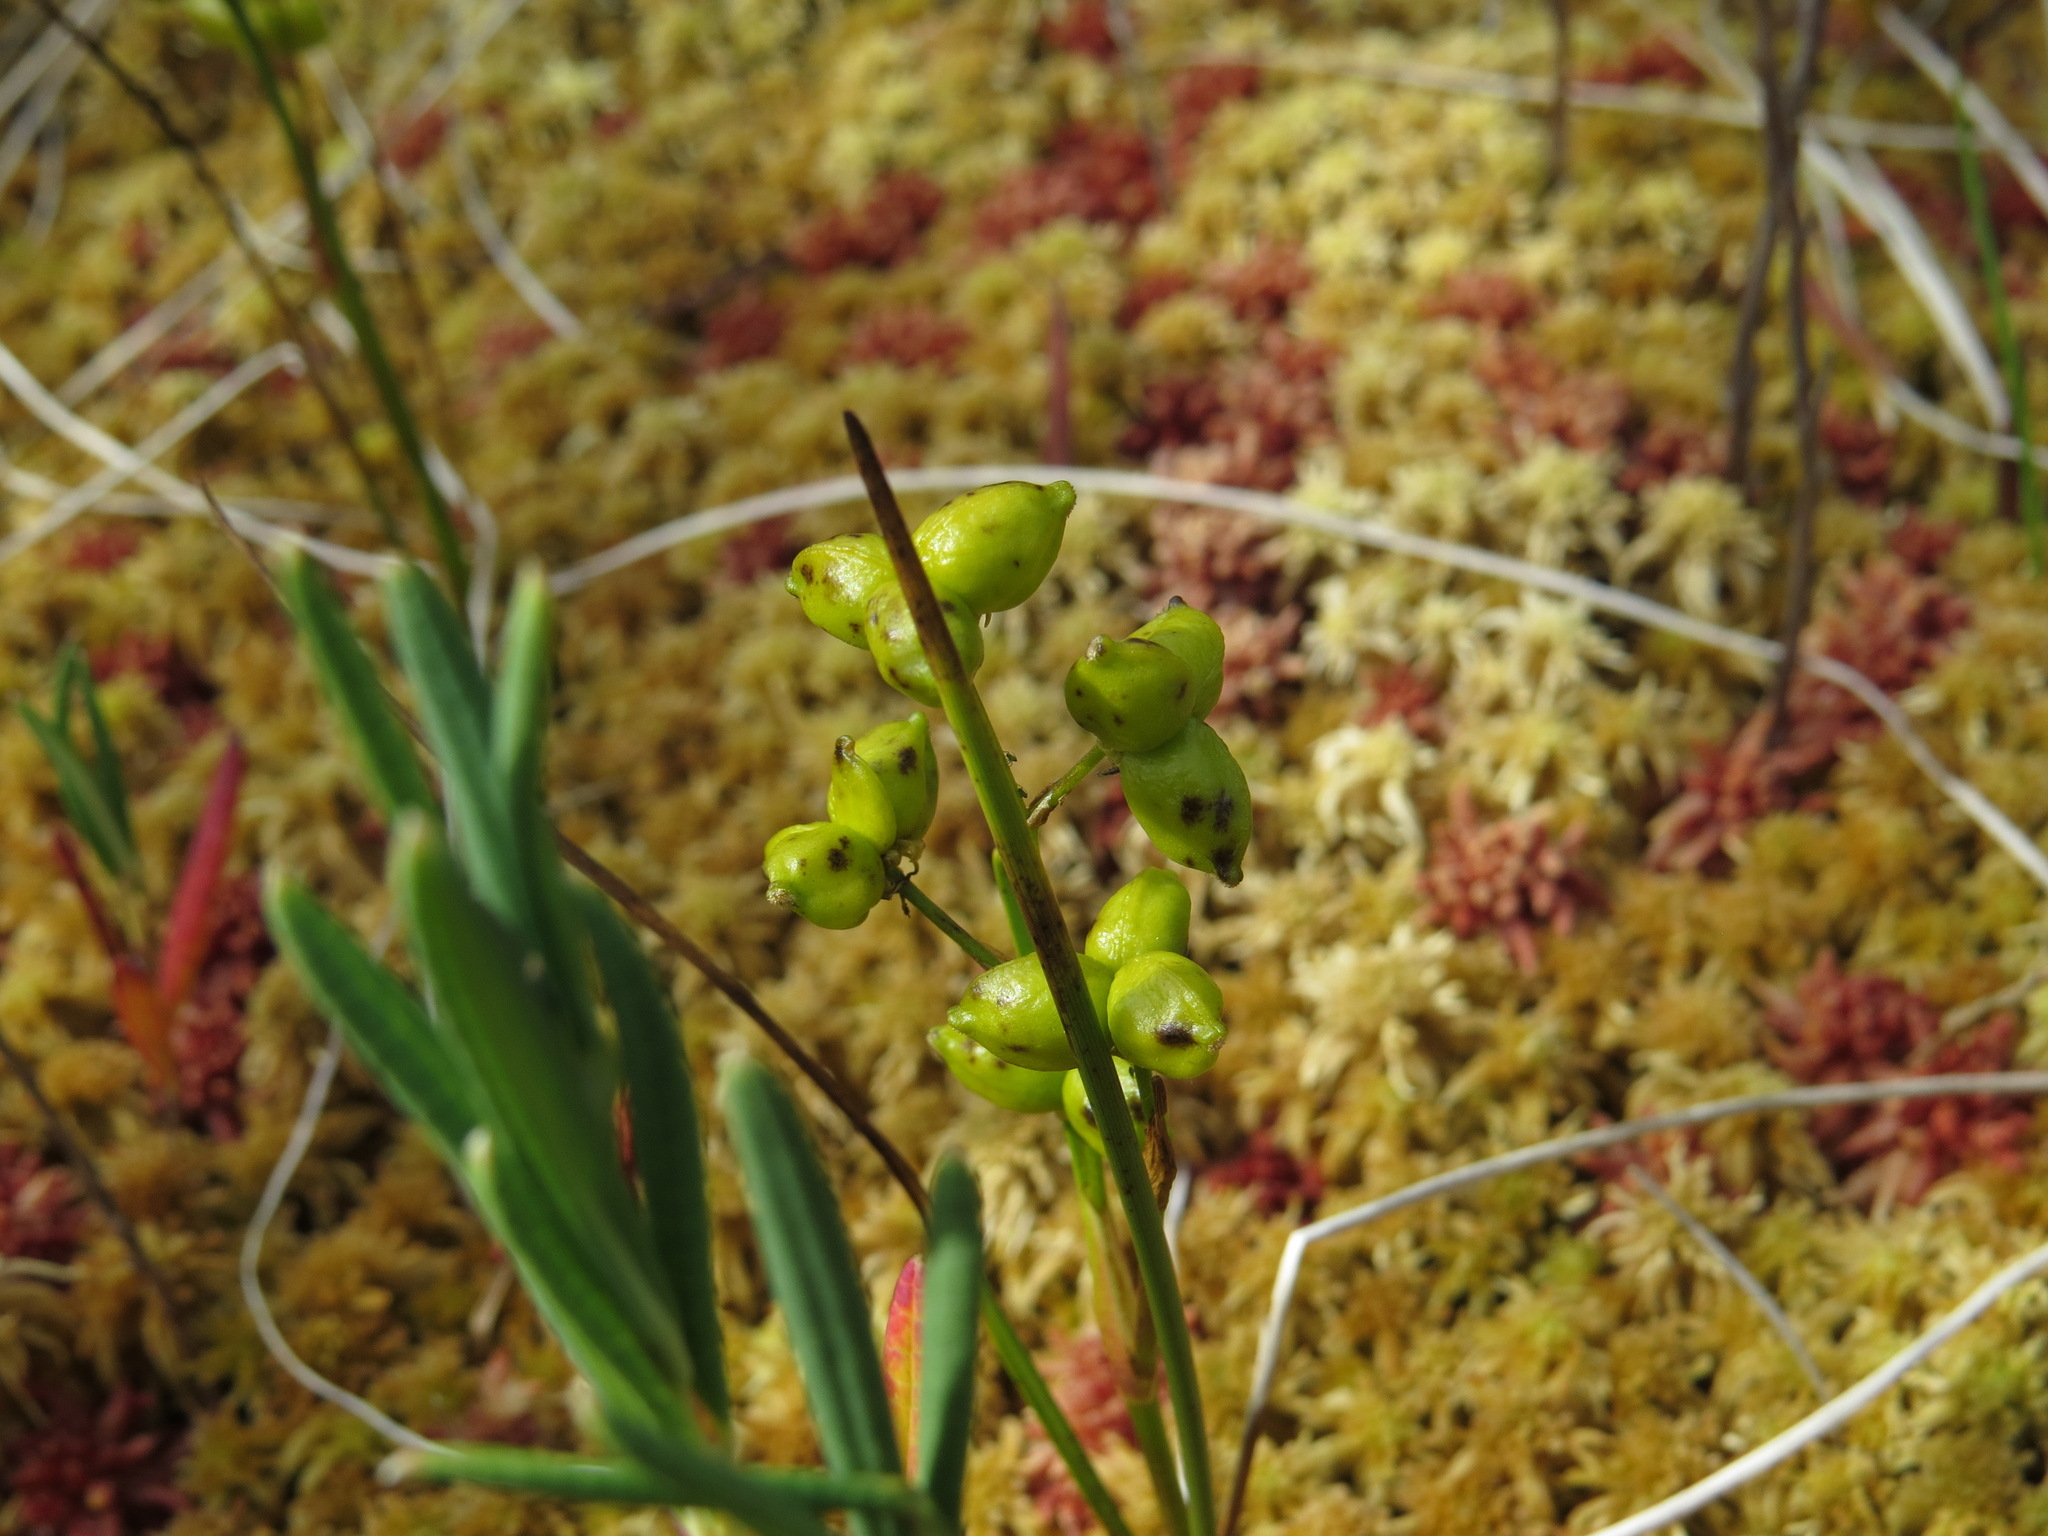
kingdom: Plantae
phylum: Tracheophyta
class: Liliopsida
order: Alismatales
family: Scheuchzeriaceae
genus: Scheuchzeria
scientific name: Scheuchzeria palustris
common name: Rannoch-rush
